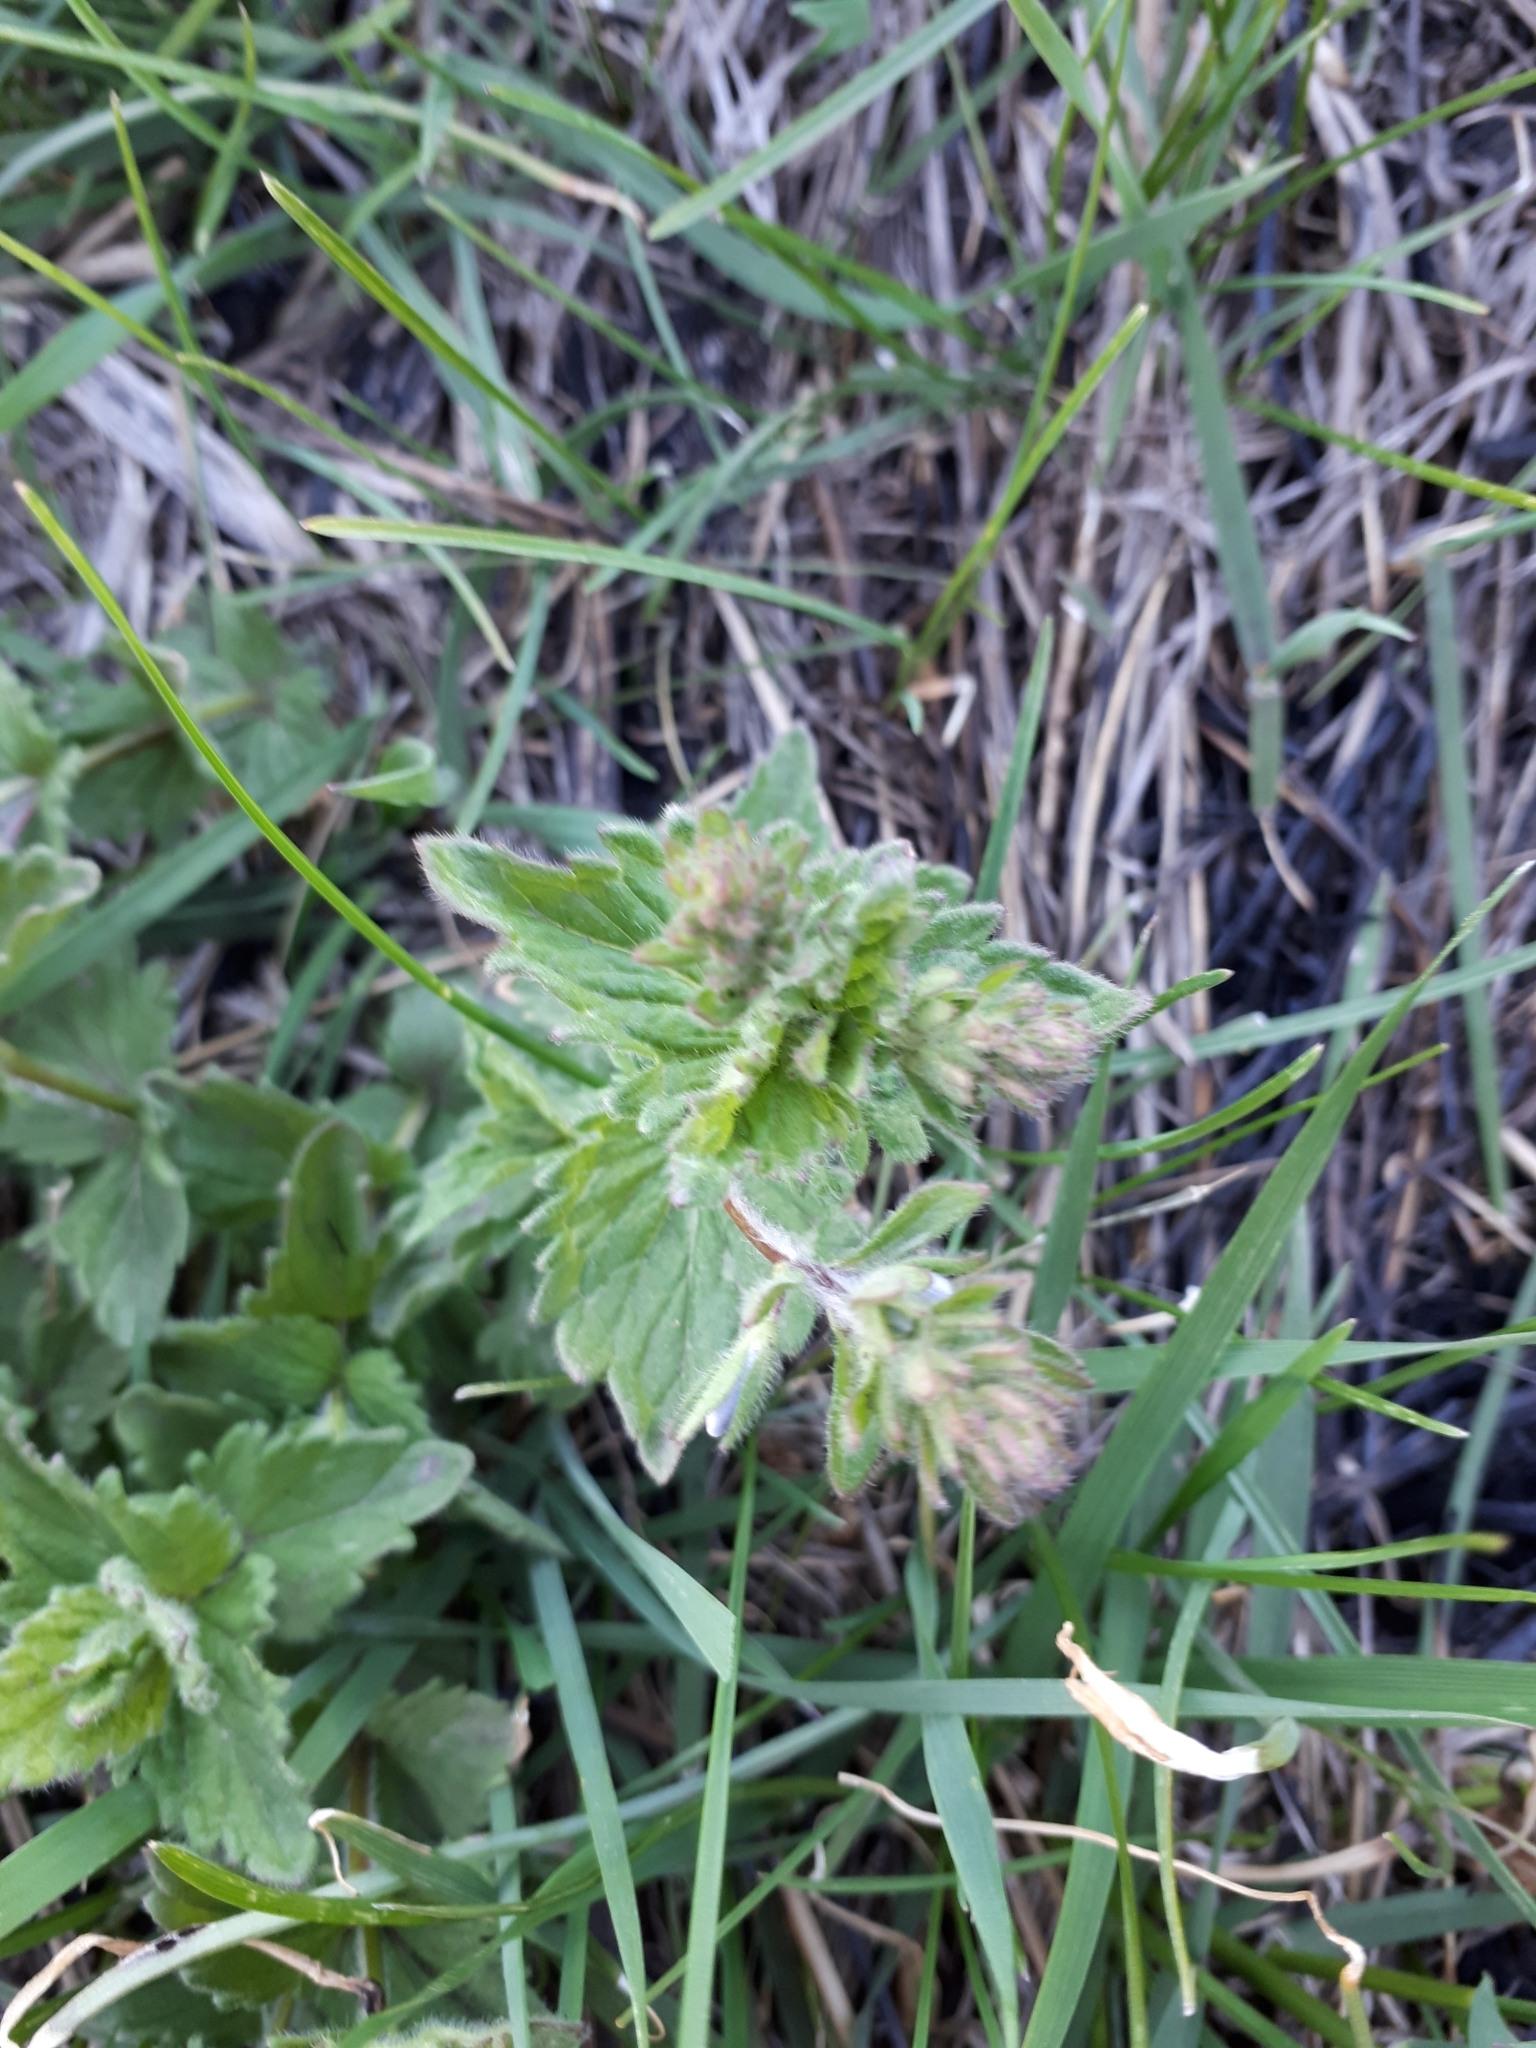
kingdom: Plantae
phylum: Tracheophyta
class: Magnoliopsida
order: Lamiales
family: Plantaginaceae
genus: Veronica
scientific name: Veronica teucrium
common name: Large speedwell
